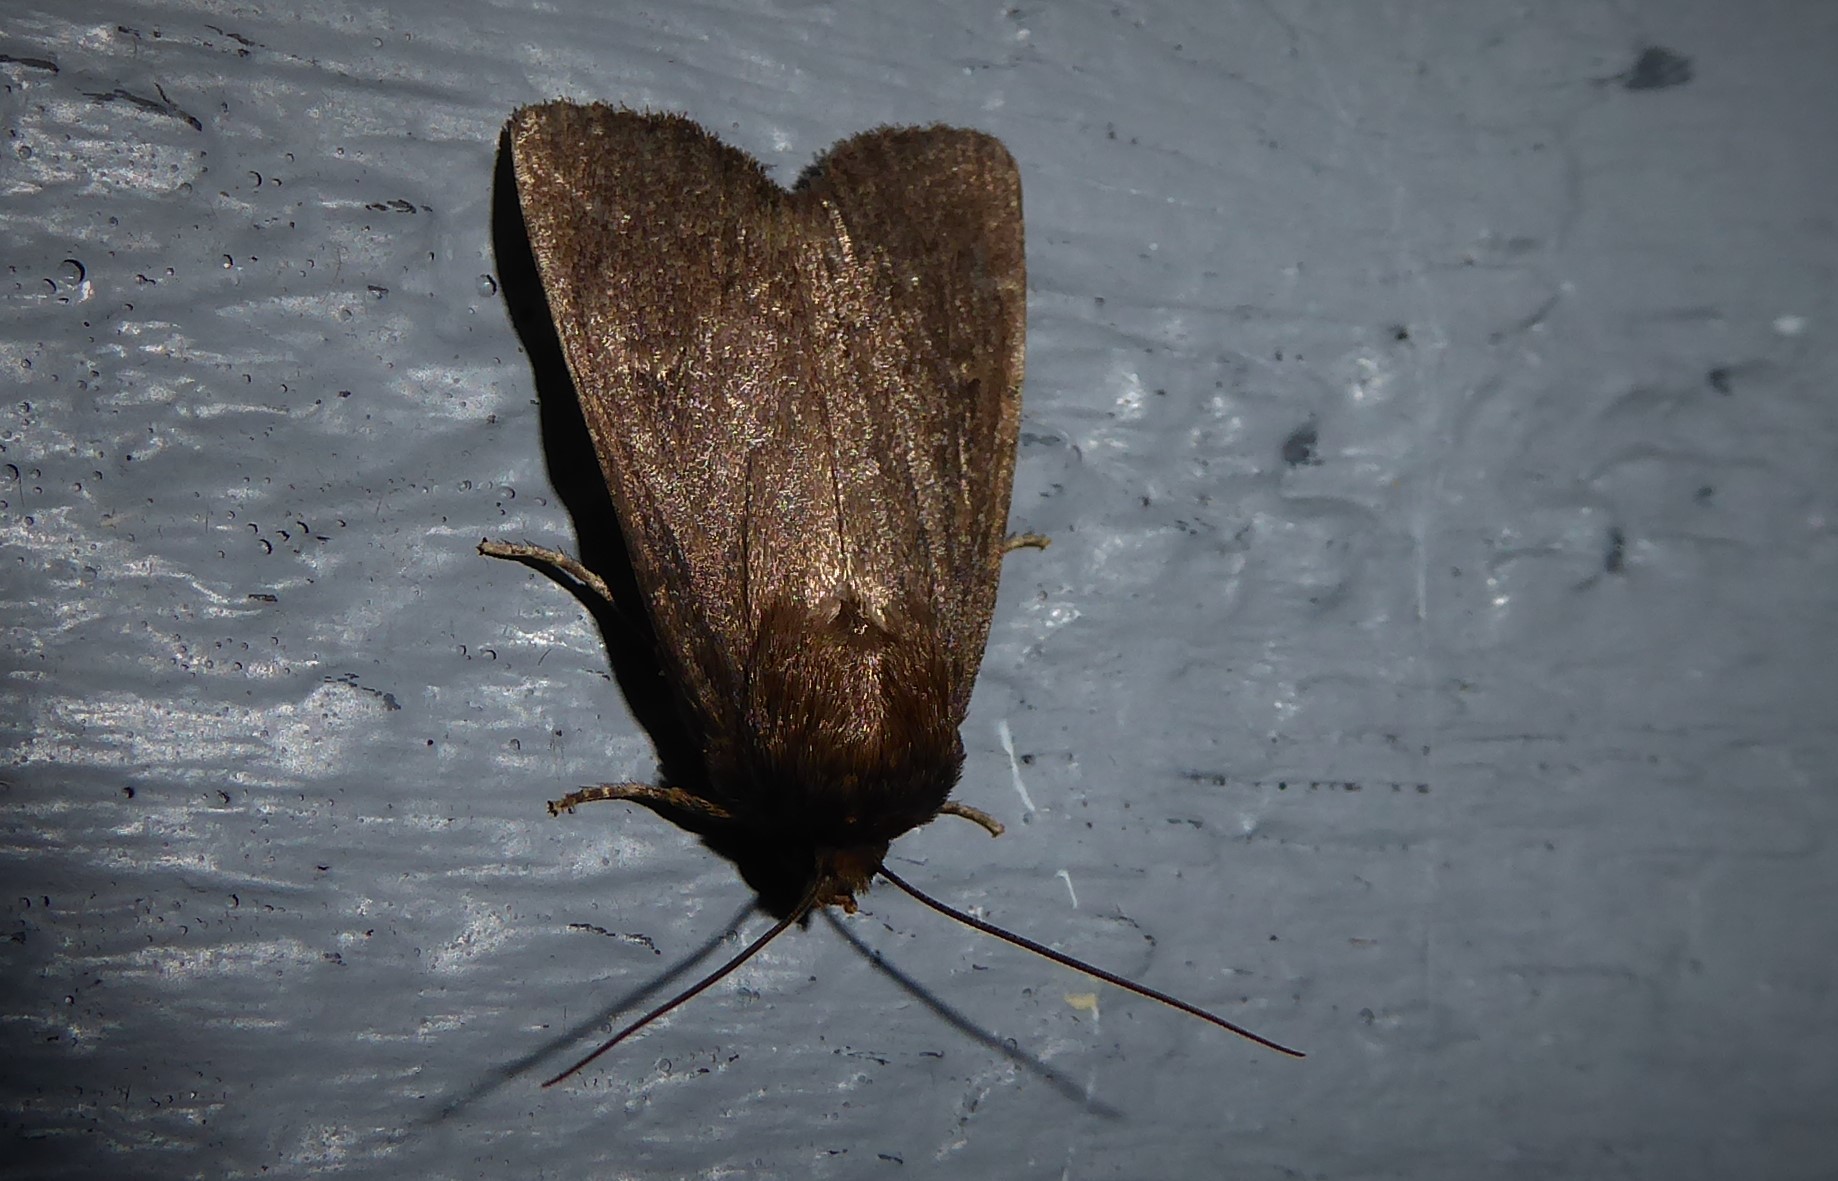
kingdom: Animalia
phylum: Arthropoda
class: Insecta
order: Lepidoptera
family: Noctuidae
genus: Bityla
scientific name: Bityla defigurata
